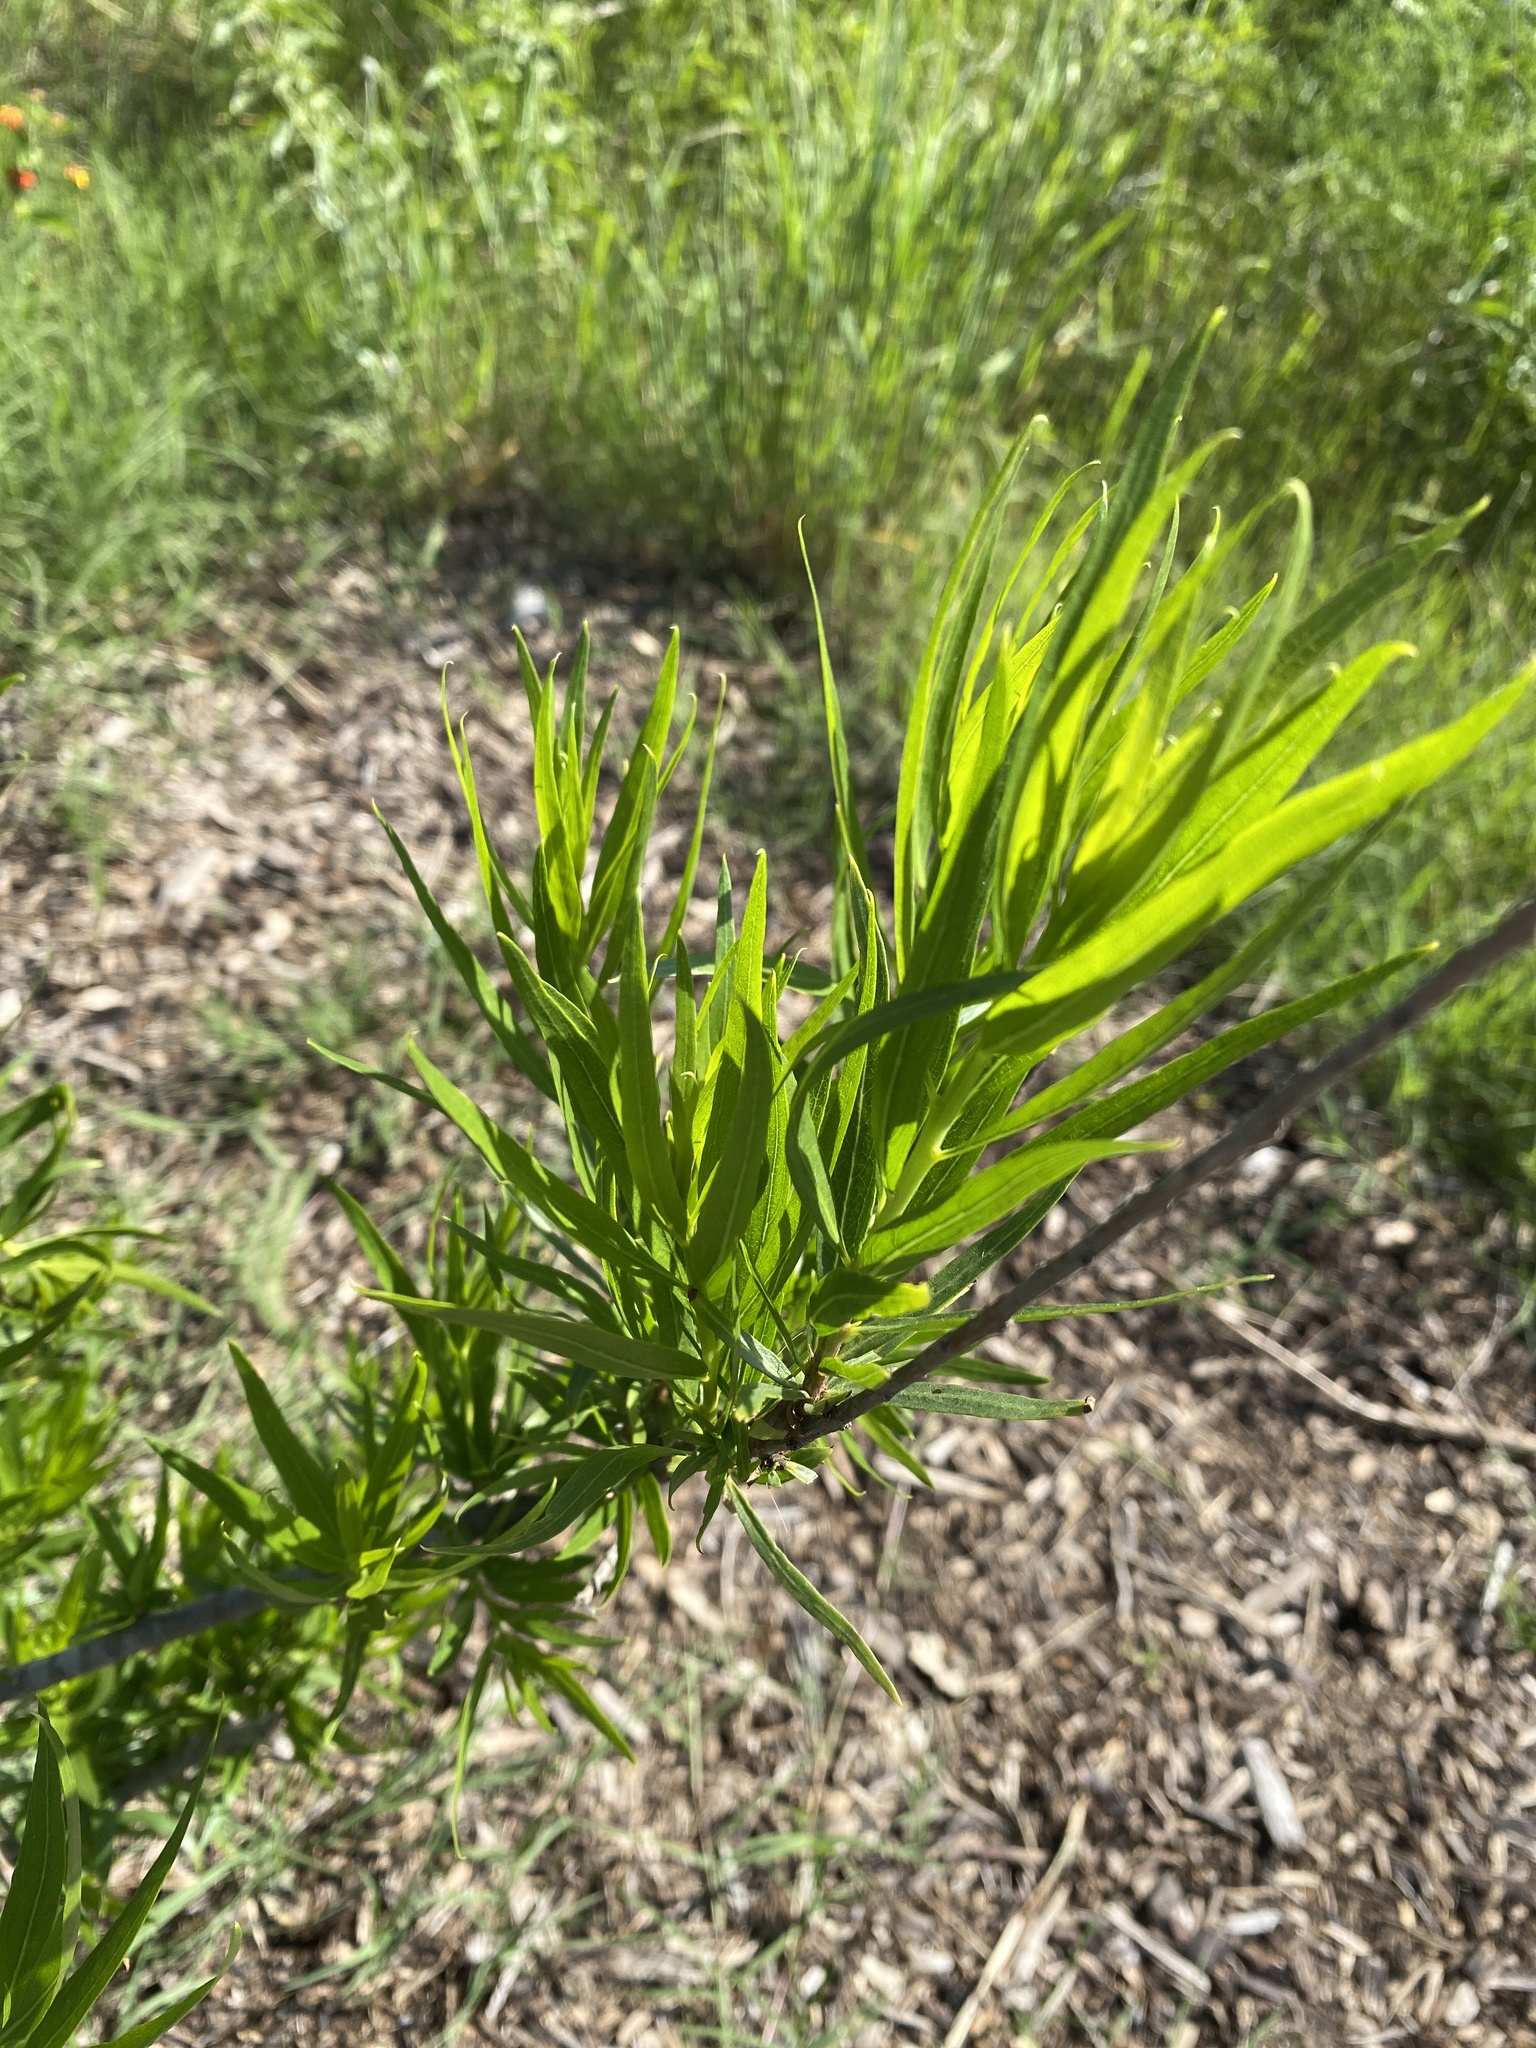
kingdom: Plantae
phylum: Tracheophyta
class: Magnoliopsida
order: Lamiales
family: Bignoniaceae
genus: Chilopsis
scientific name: Chilopsis linearis
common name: Desert-willow
